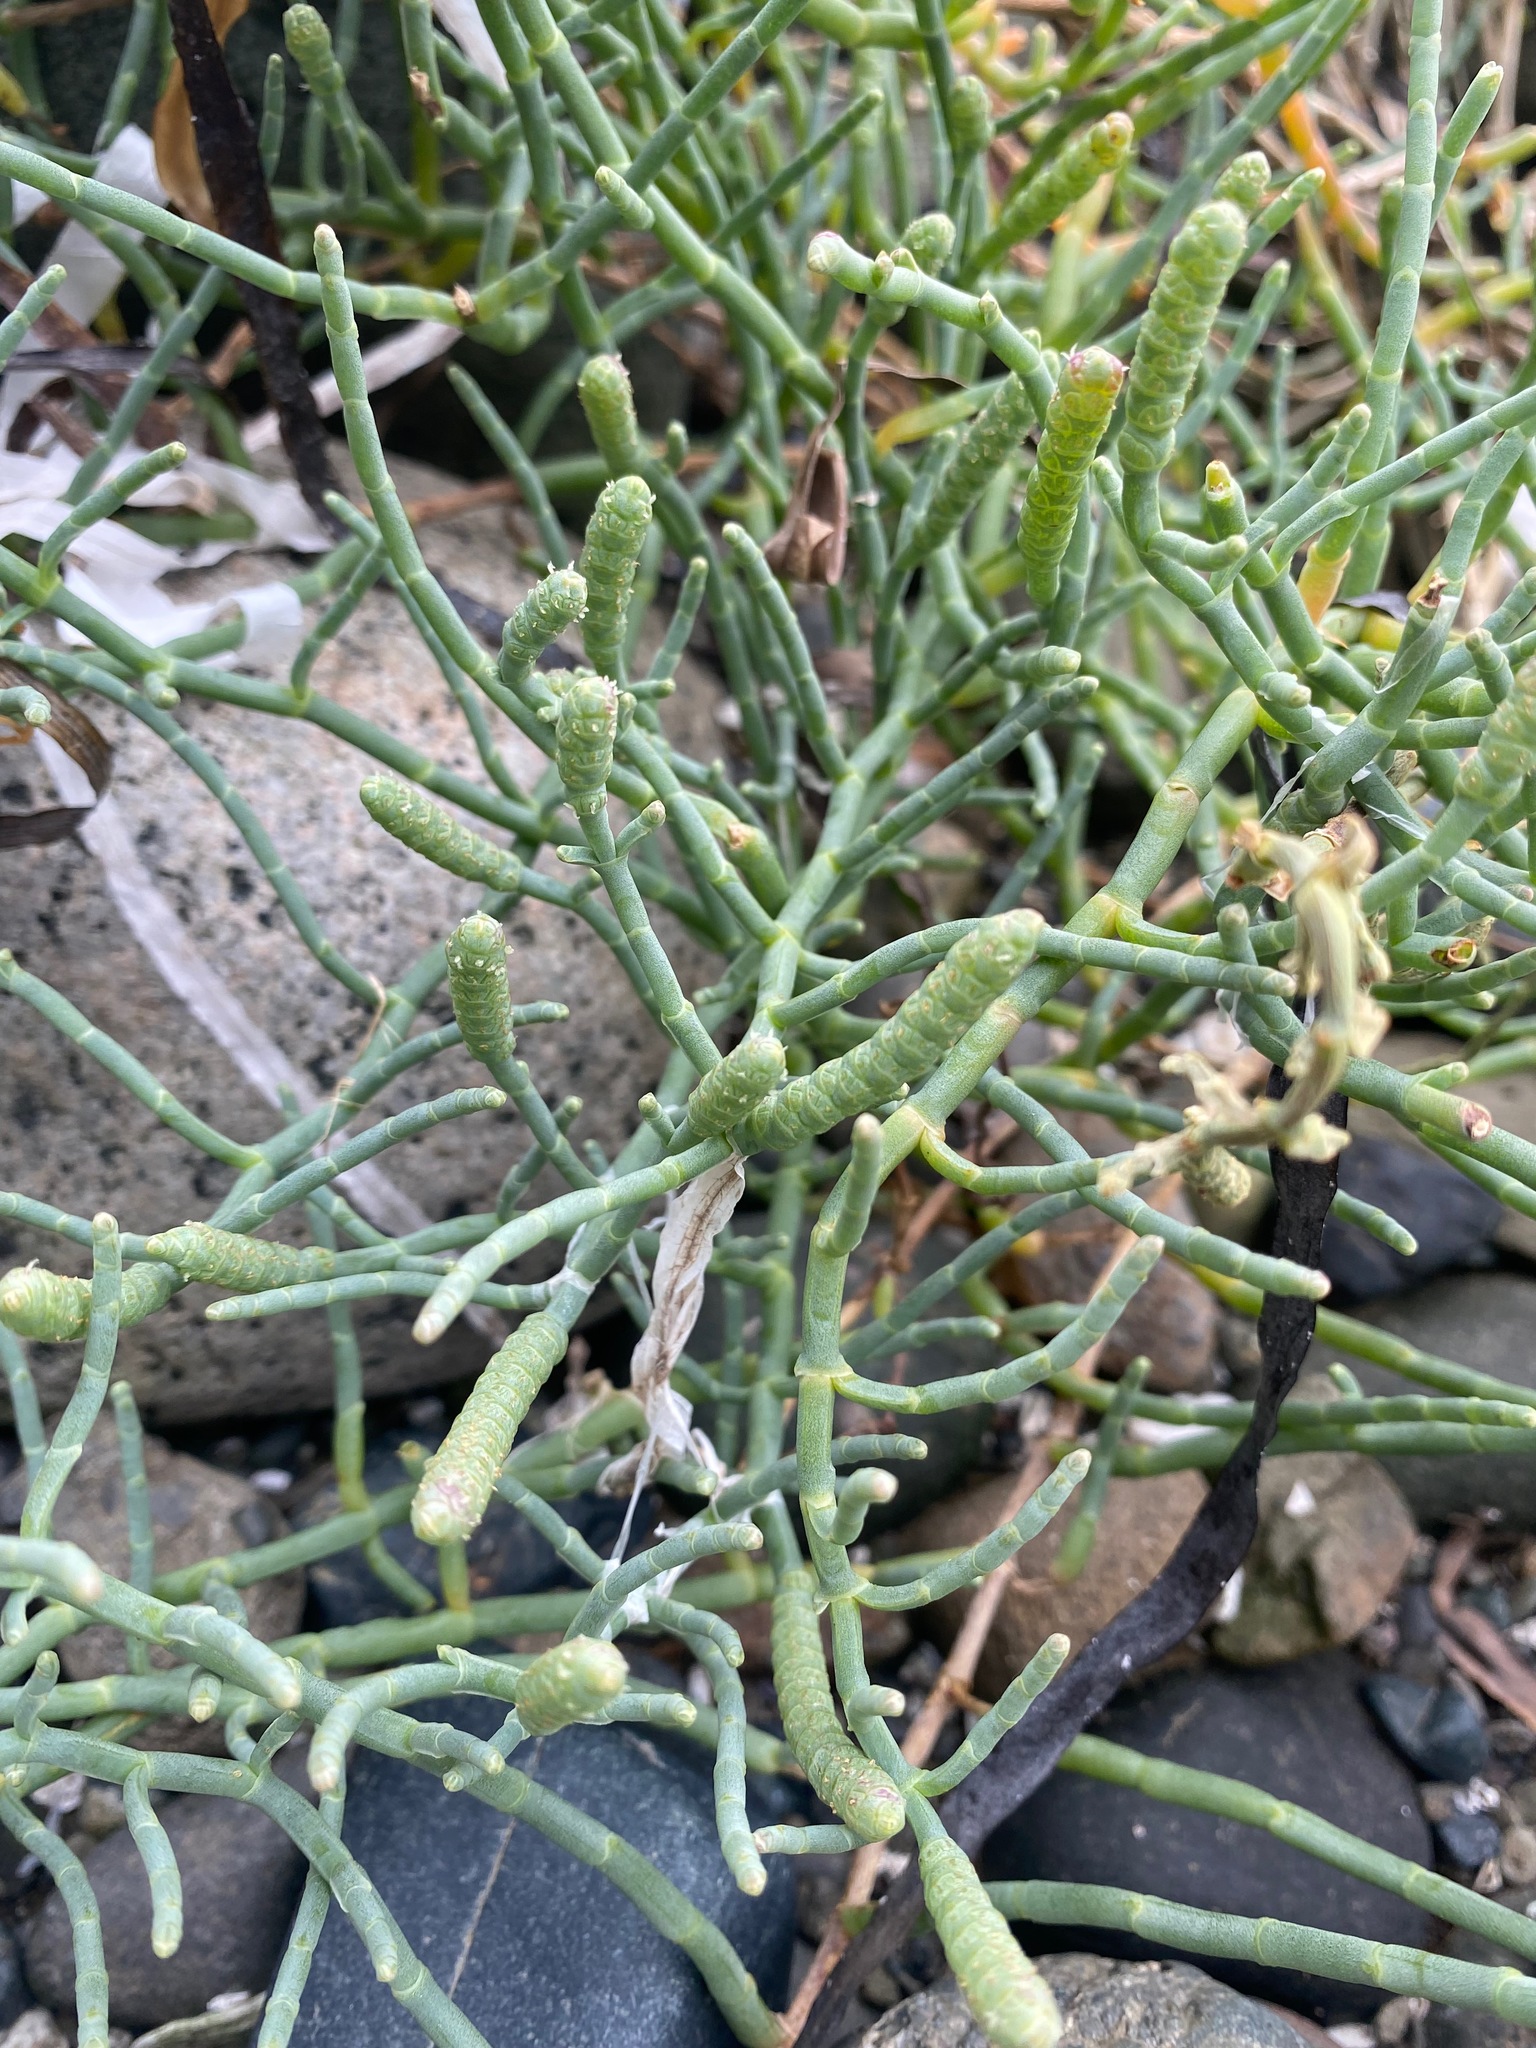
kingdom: Plantae
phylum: Tracheophyta
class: Magnoliopsida
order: Caryophyllales
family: Amaranthaceae
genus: Salicornia
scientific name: Salicornia pacifica
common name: Pacific glasswort
